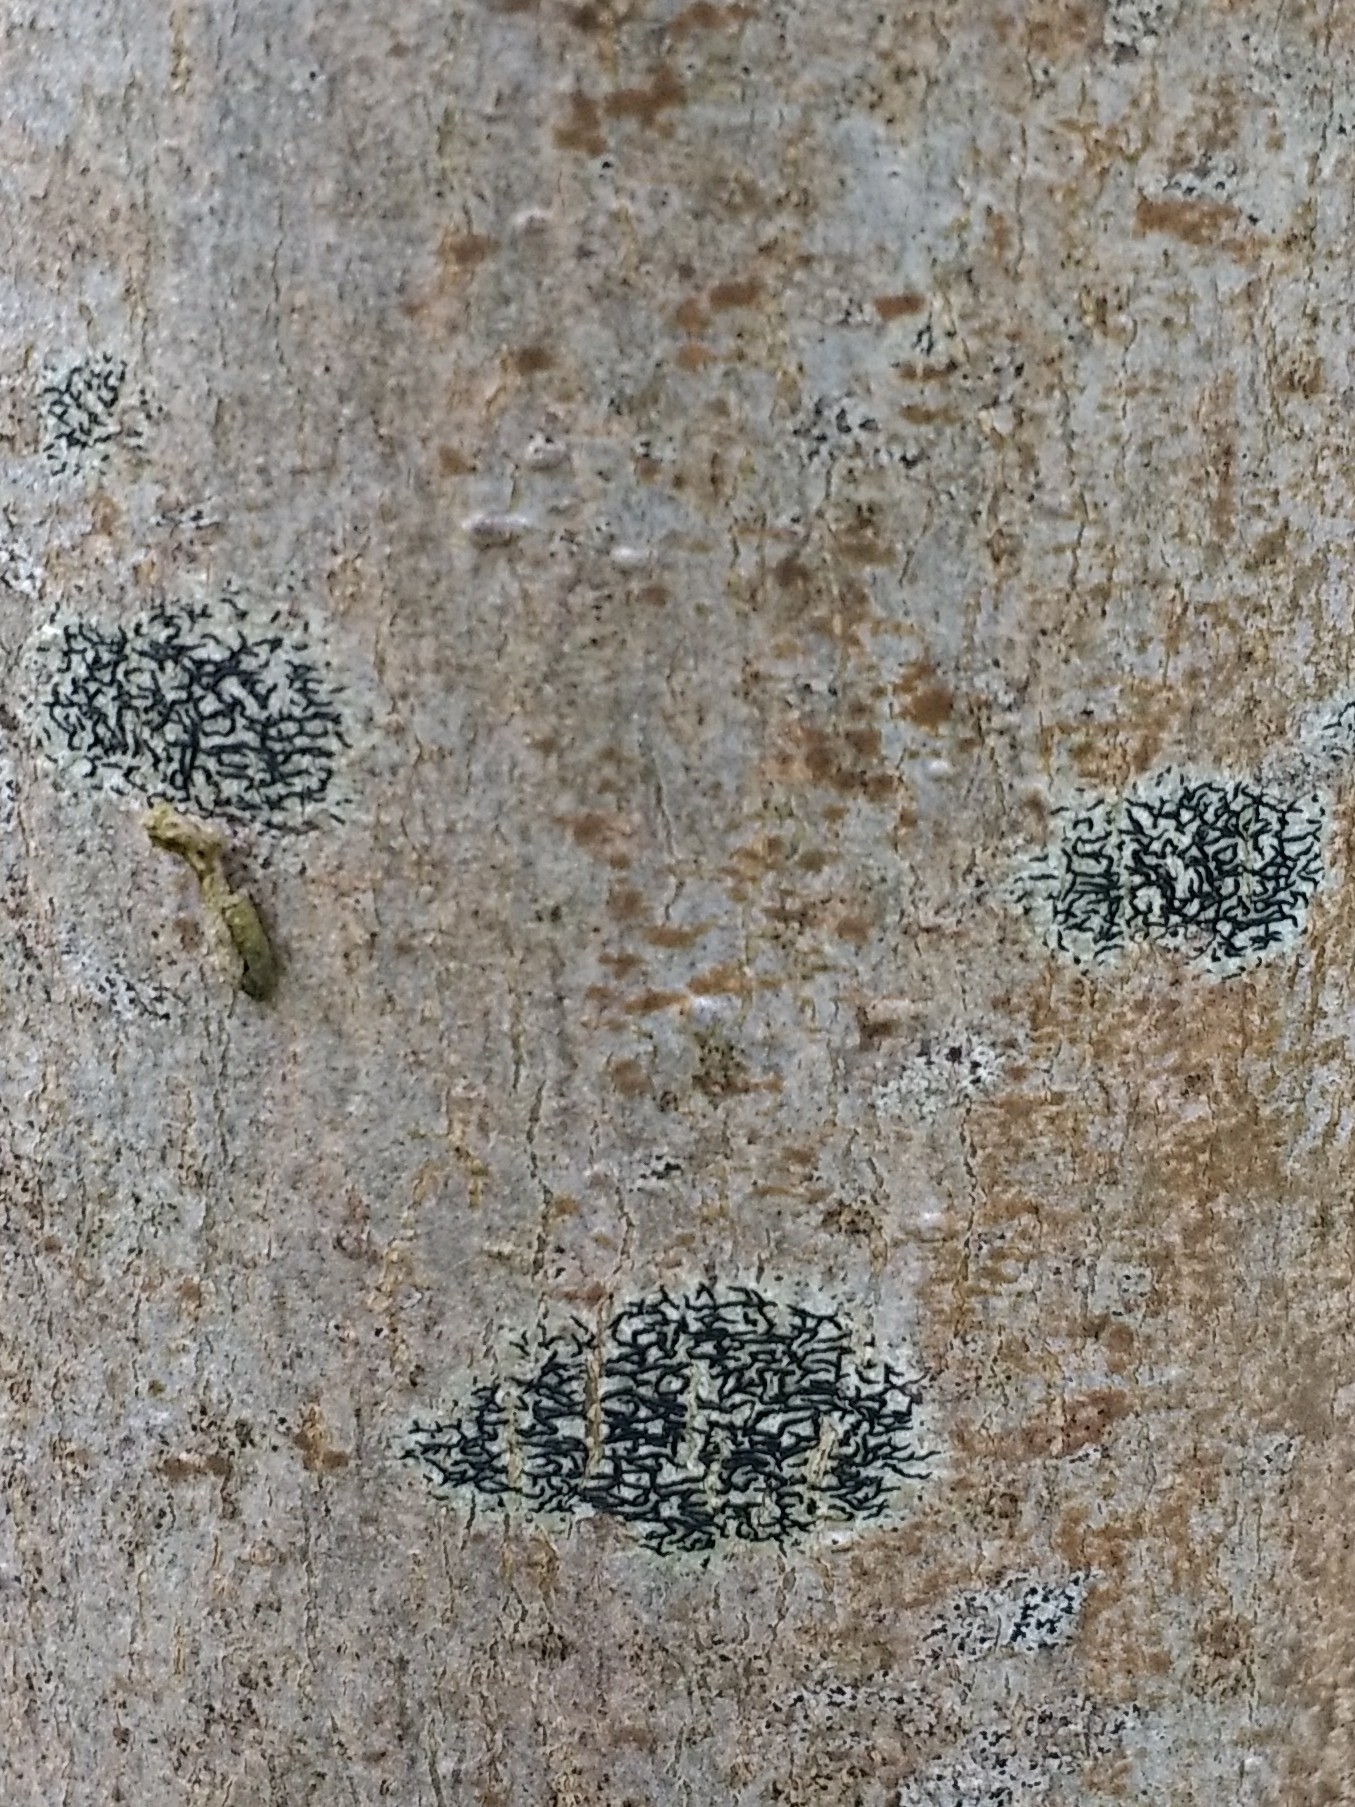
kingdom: Fungi
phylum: Ascomycota
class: Lecanoromycetes
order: Ostropales
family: Graphidaceae
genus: Graphis
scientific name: Graphis scripta
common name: Script lichen
